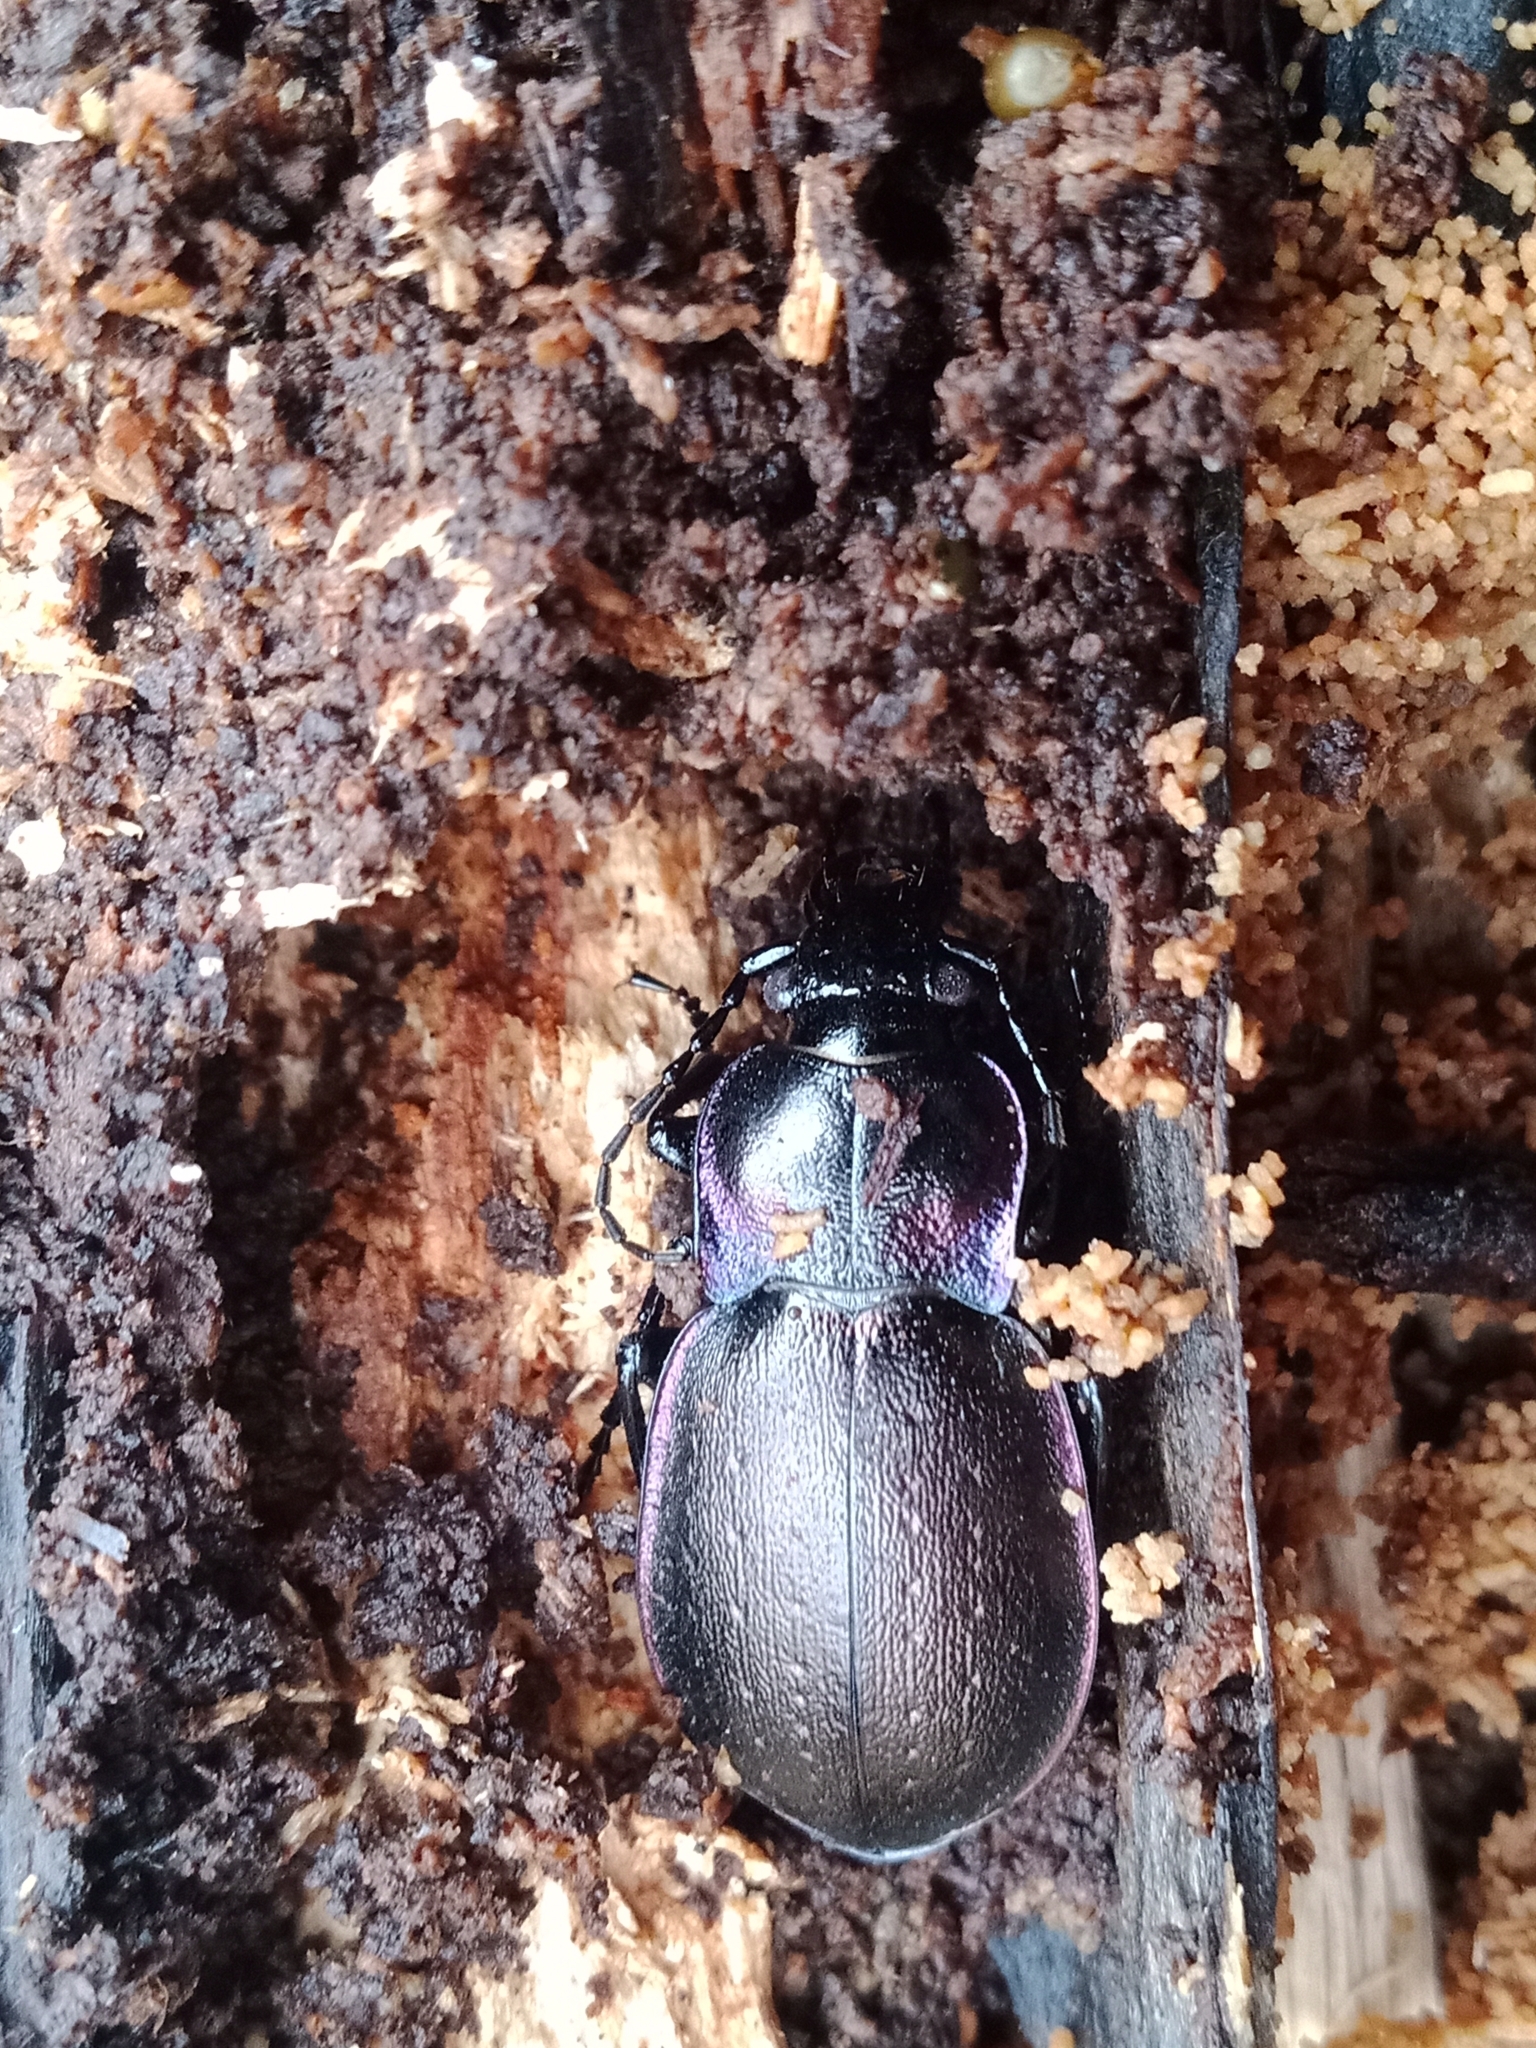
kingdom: Animalia
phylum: Arthropoda
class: Insecta
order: Coleoptera
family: Carabidae
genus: Carabus
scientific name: Carabus nemoralis
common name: European ground beetle
